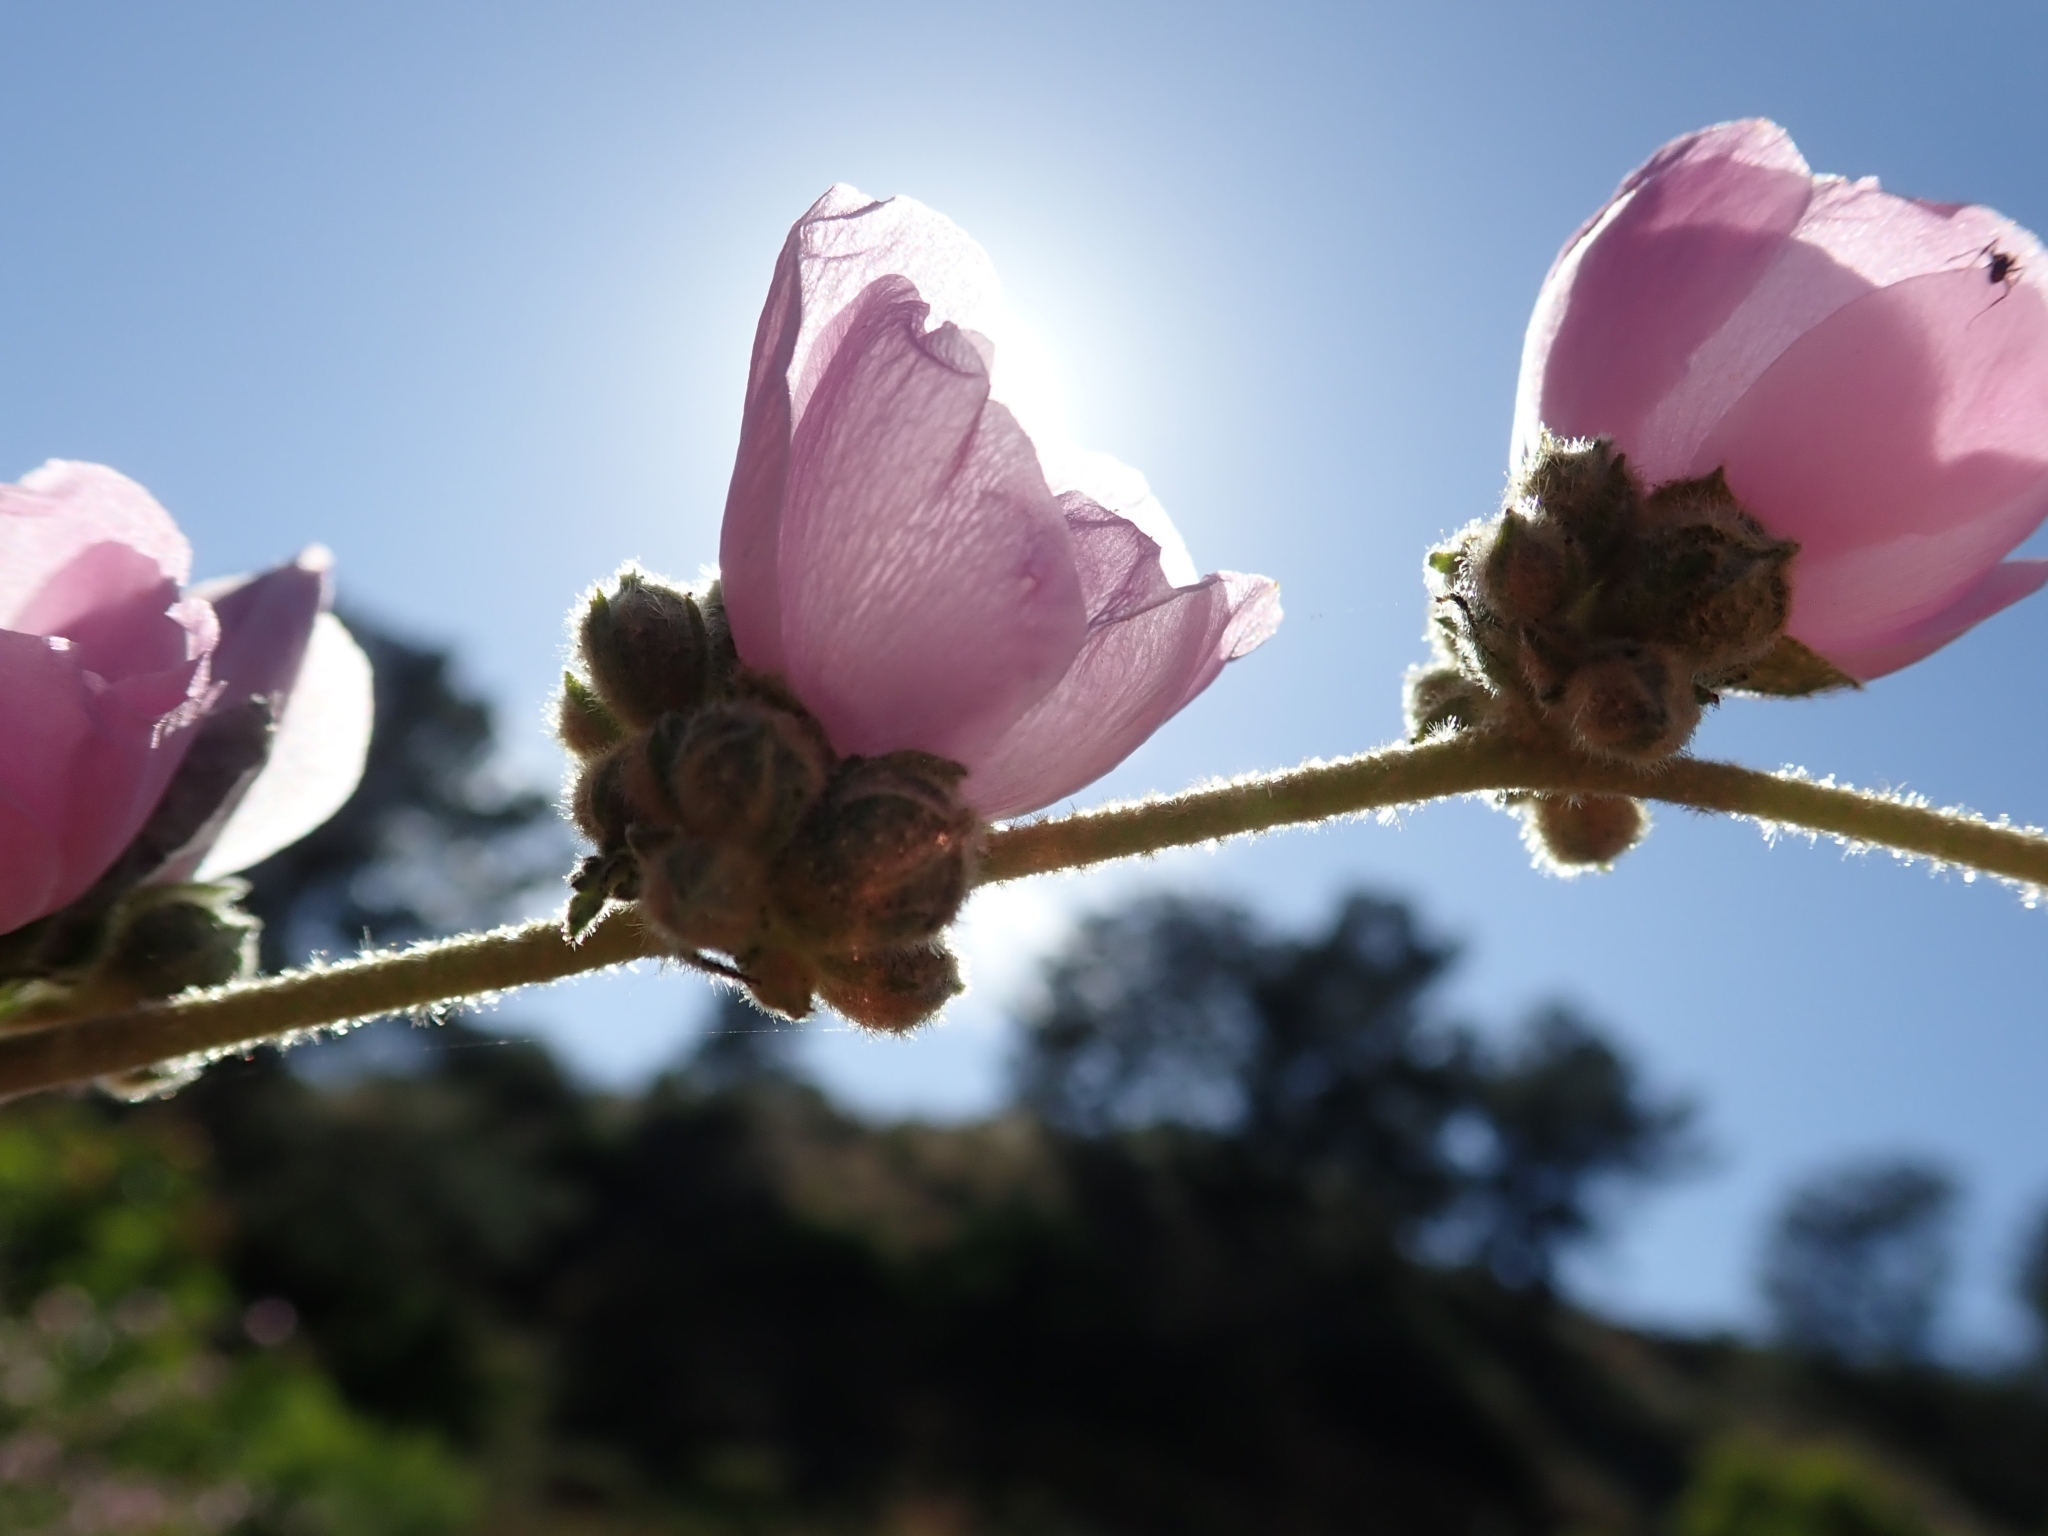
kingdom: Plantae
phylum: Tracheophyta
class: Magnoliopsida
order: Malvales
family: Malvaceae
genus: Malacothamnus
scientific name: Malacothamnus fasciculatus
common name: Sant cruz island bush-mallow
